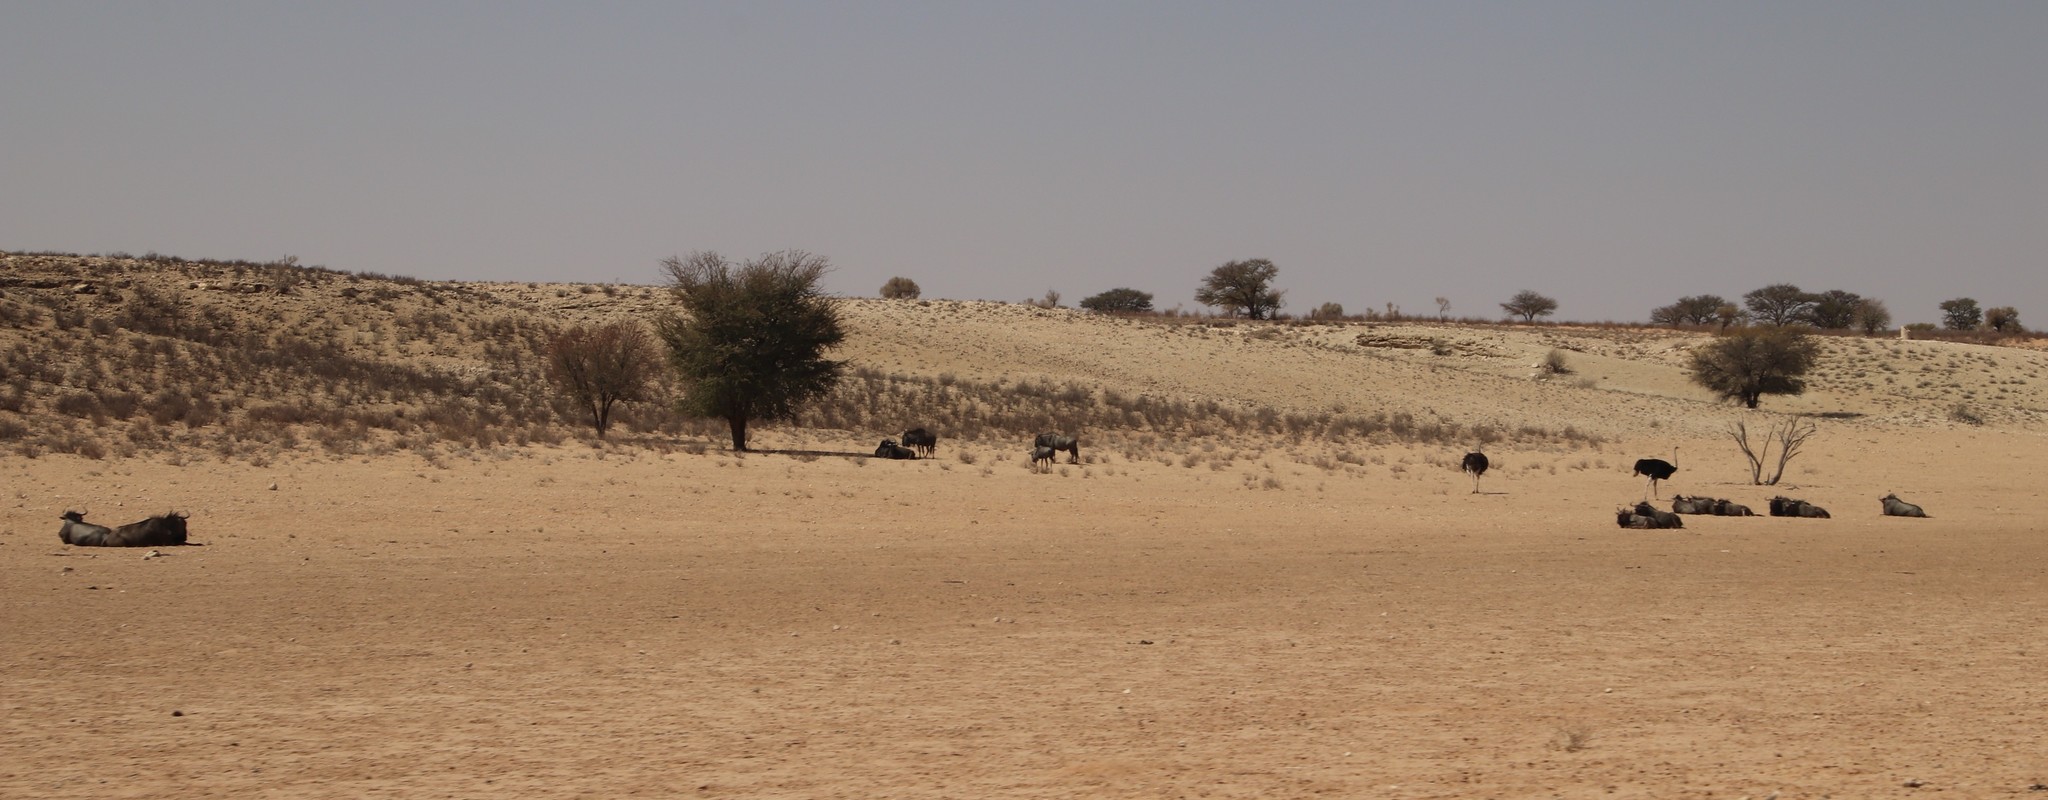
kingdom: Animalia
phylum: Chordata
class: Mammalia
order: Artiodactyla
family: Bovidae
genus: Connochaetes
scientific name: Connochaetes taurinus
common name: Blue wildebeest
